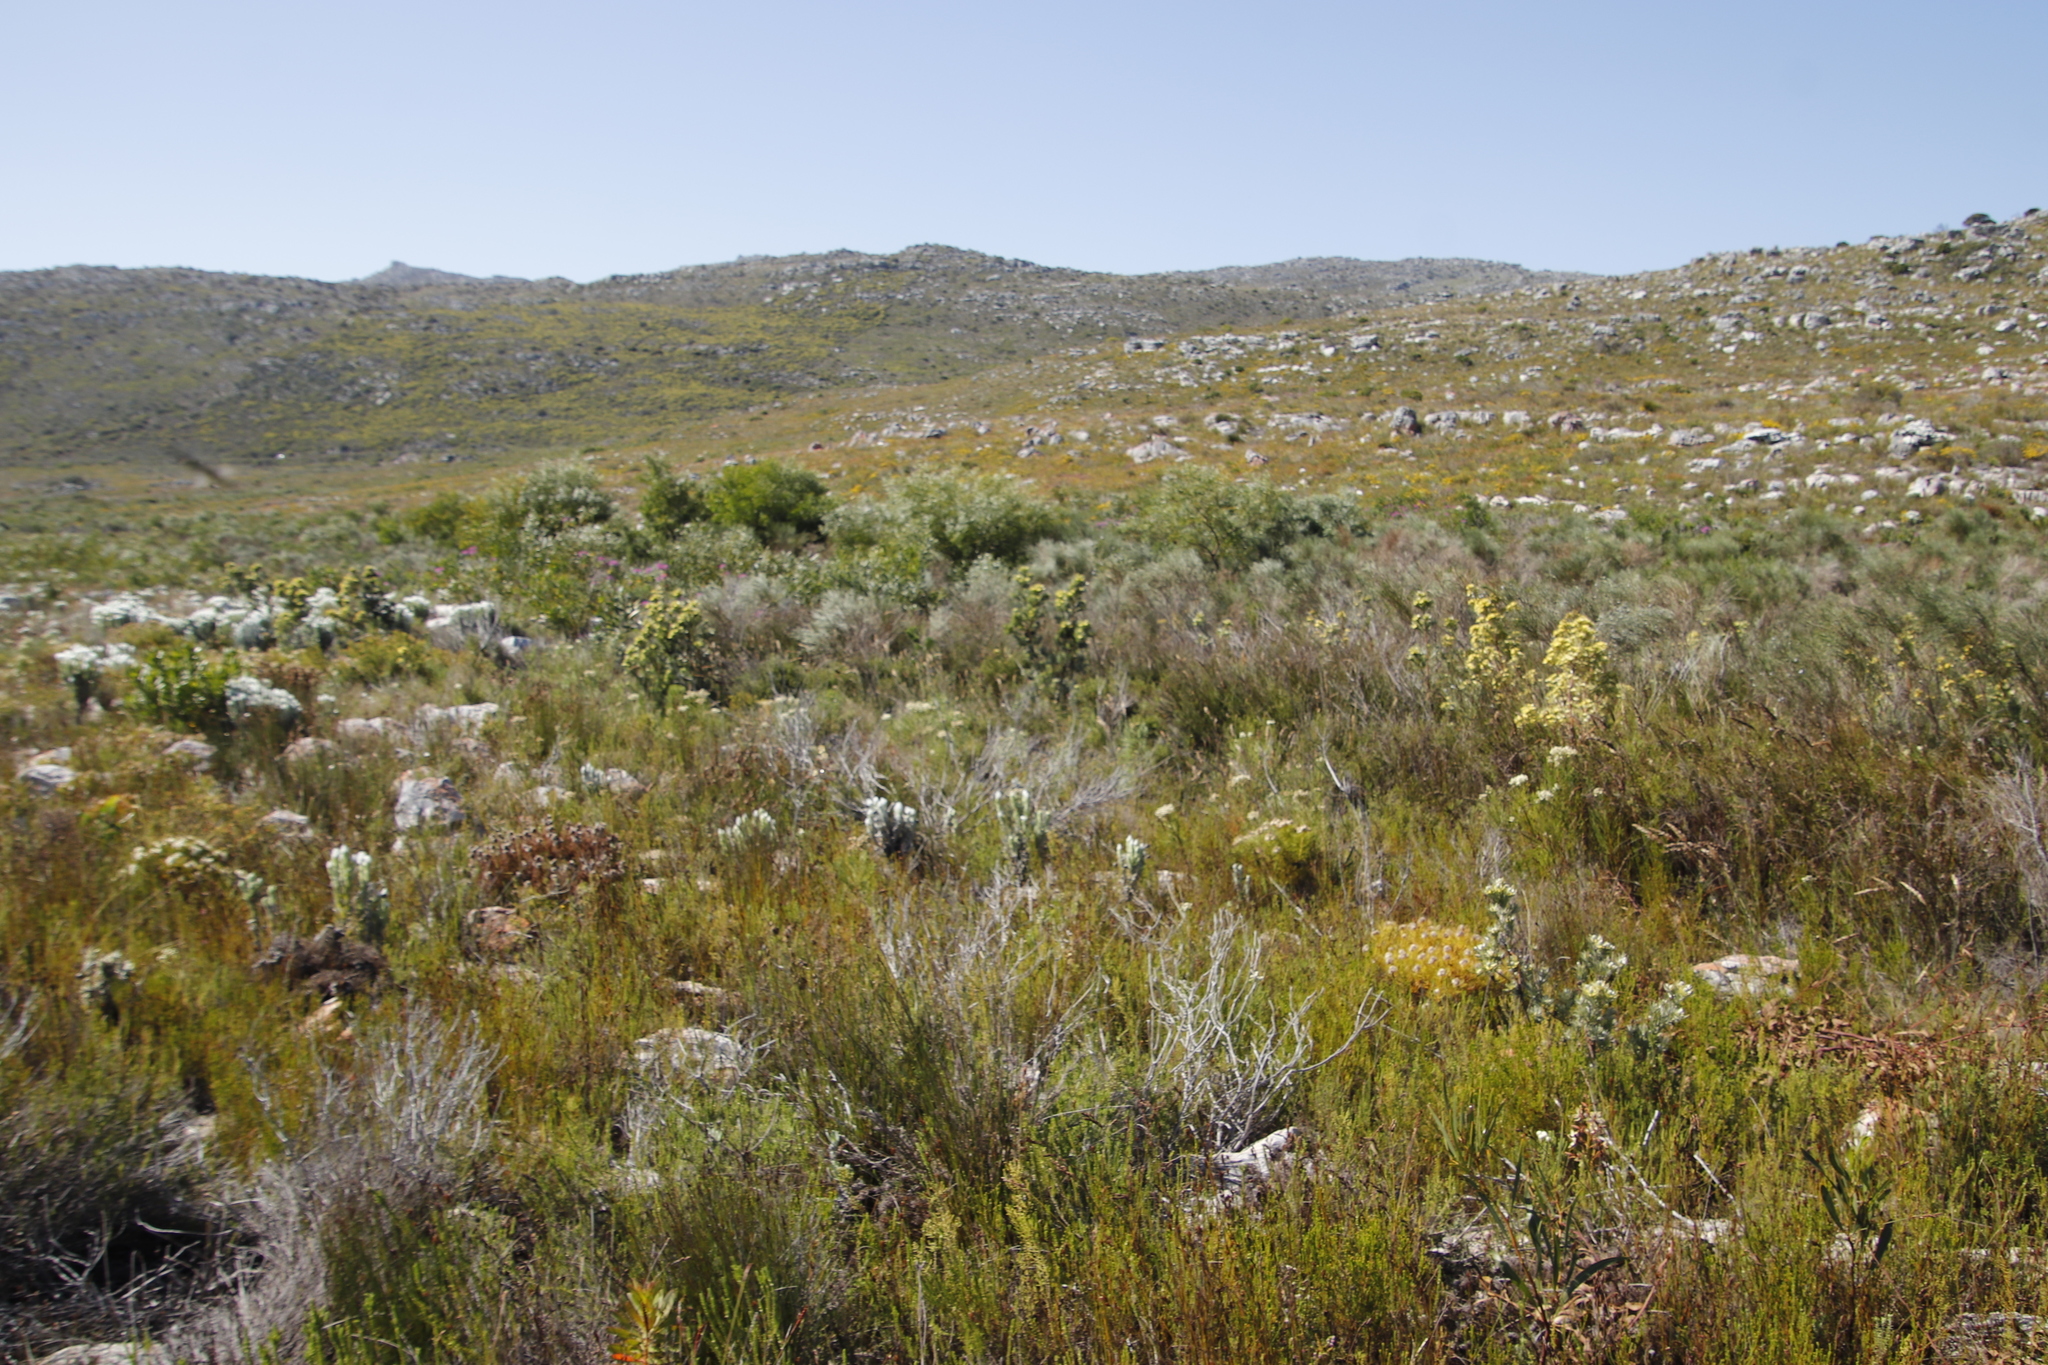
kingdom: Plantae
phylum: Tracheophyta
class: Magnoliopsida
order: Proteales
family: Proteaceae
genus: Leucadendron
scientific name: Leucadendron floridum
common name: Flats conebush
